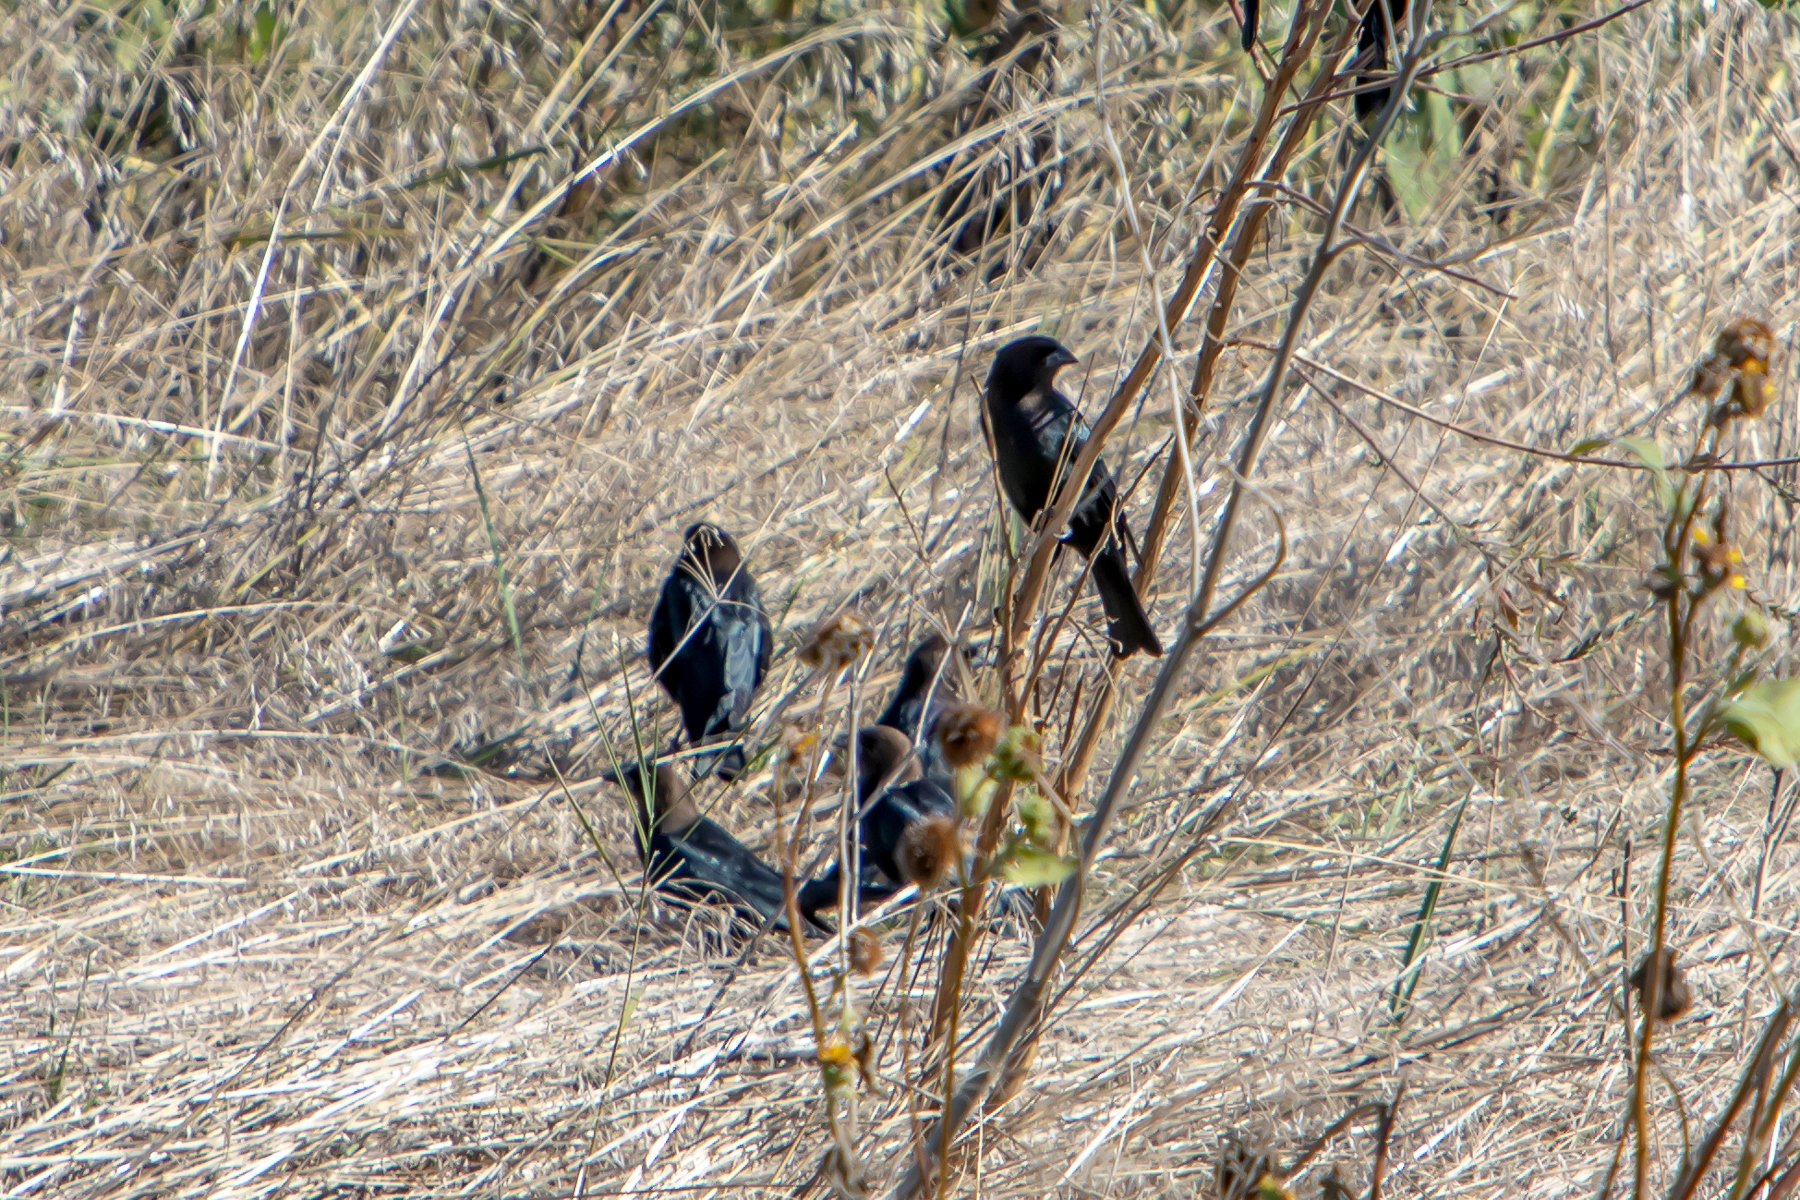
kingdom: Animalia
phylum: Chordata
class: Aves
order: Passeriformes
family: Icteridae
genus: Molothrus
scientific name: Molothrus ater
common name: Brown-headed cowbird
